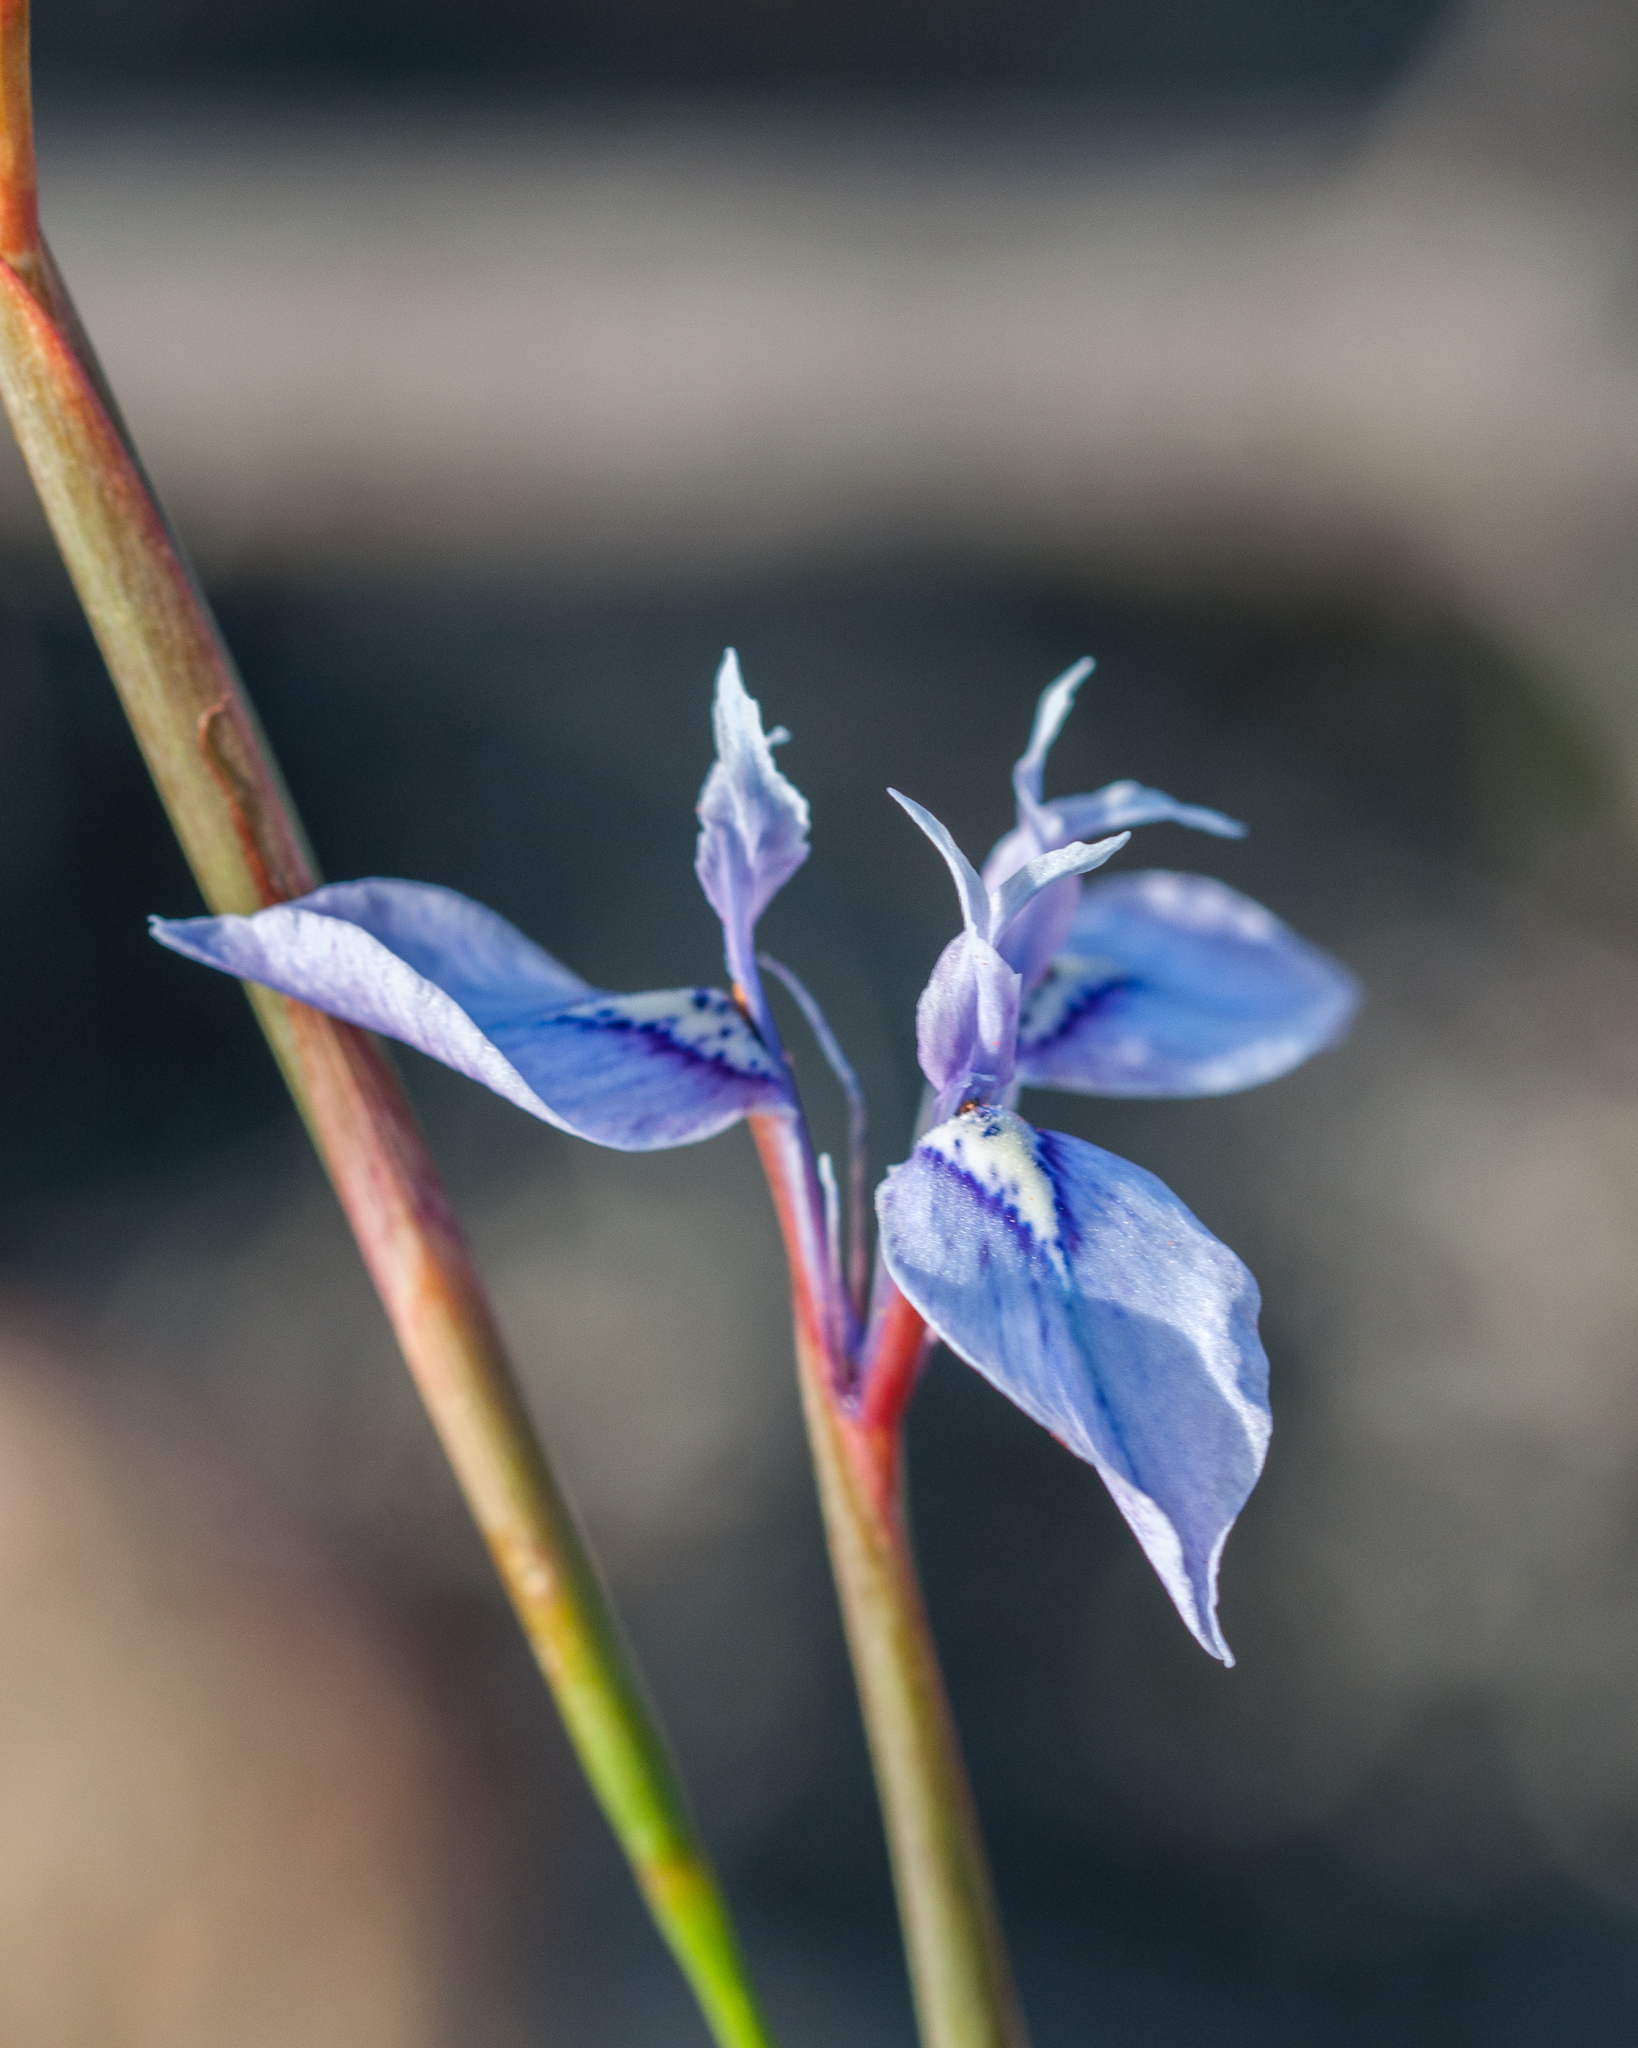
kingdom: Plantae
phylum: Tracheophyta
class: Liliopsida
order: Asparagales
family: Iridaceae
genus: Moraea
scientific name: Moraea tripetala
